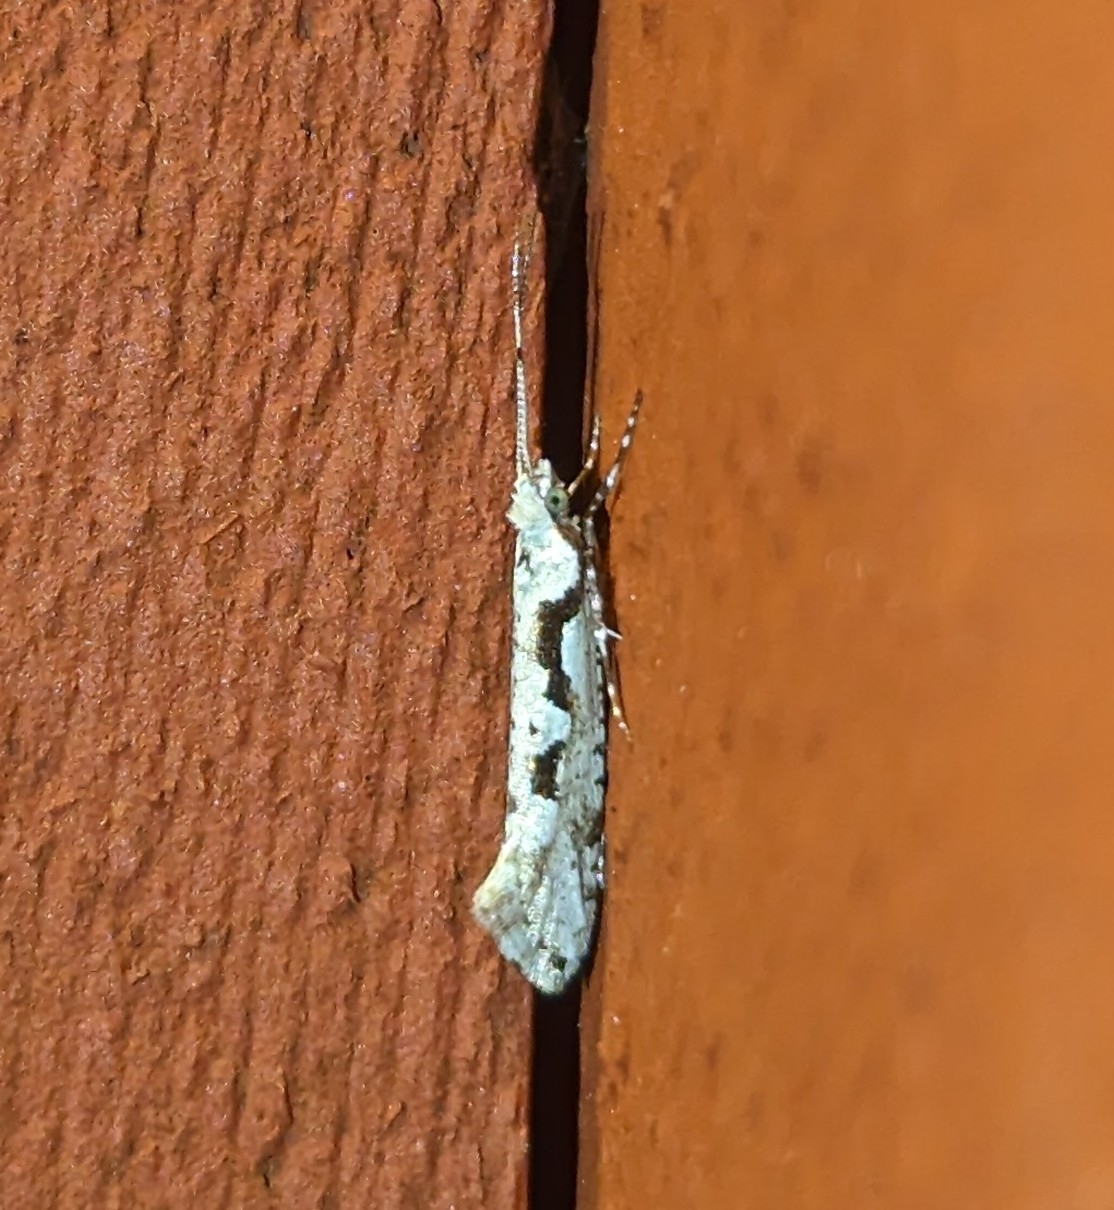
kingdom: Animalia
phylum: Arthropoda
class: Insecta
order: Lepidoptera
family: Plutellidae
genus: Rhigognostis
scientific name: Rhigognostis interrupta
